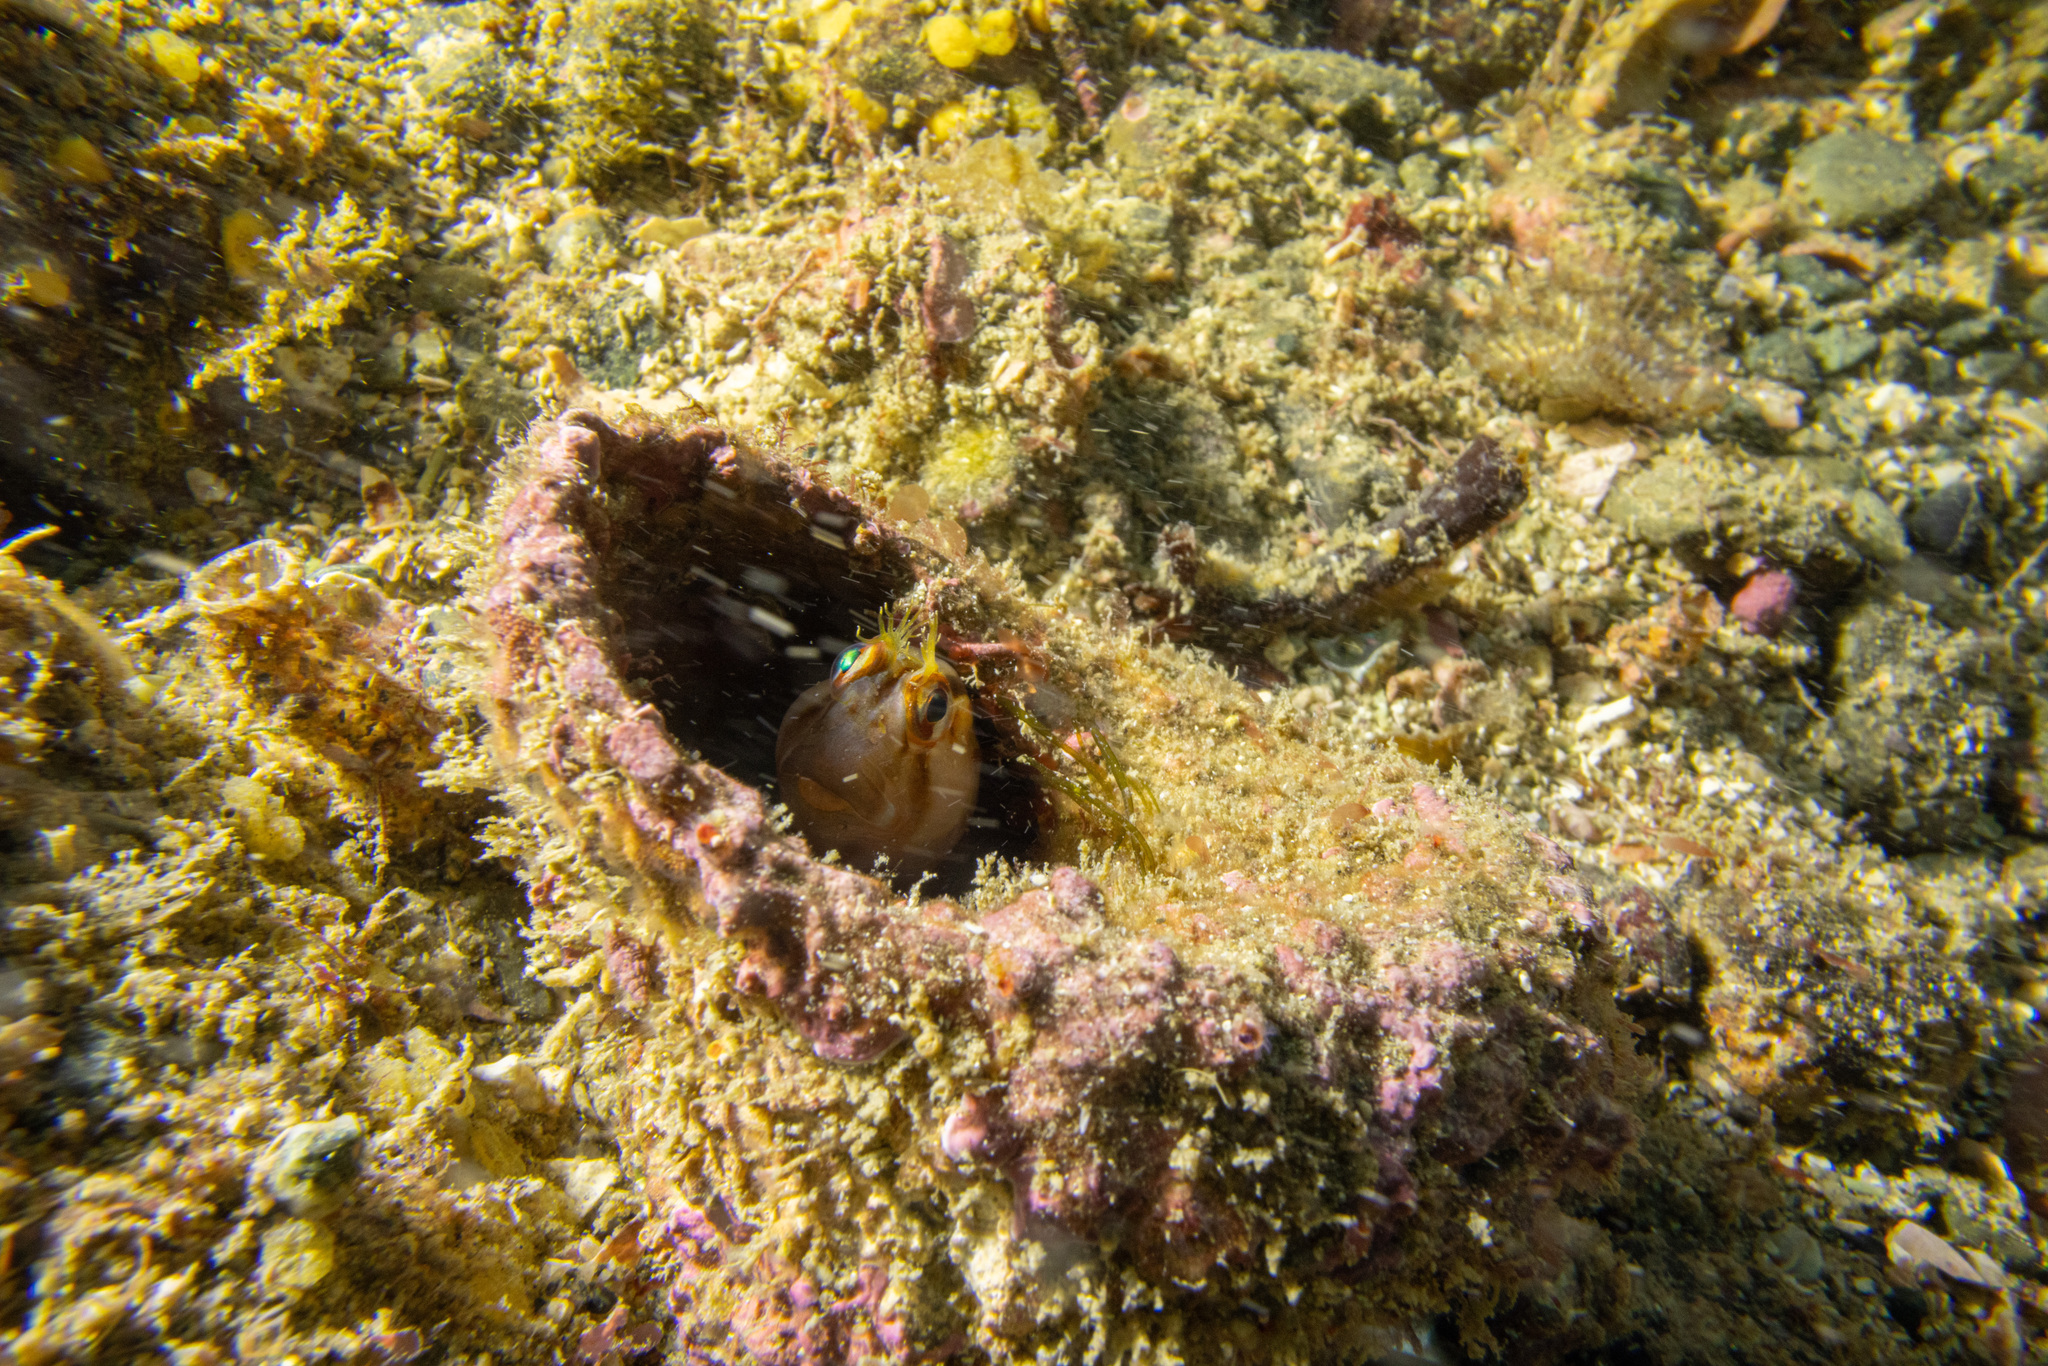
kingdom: Animalia
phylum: Chordata
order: Perciformes
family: Blenniidae
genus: Parablennius
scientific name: Parablennius laticlavius
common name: Crested blenny
